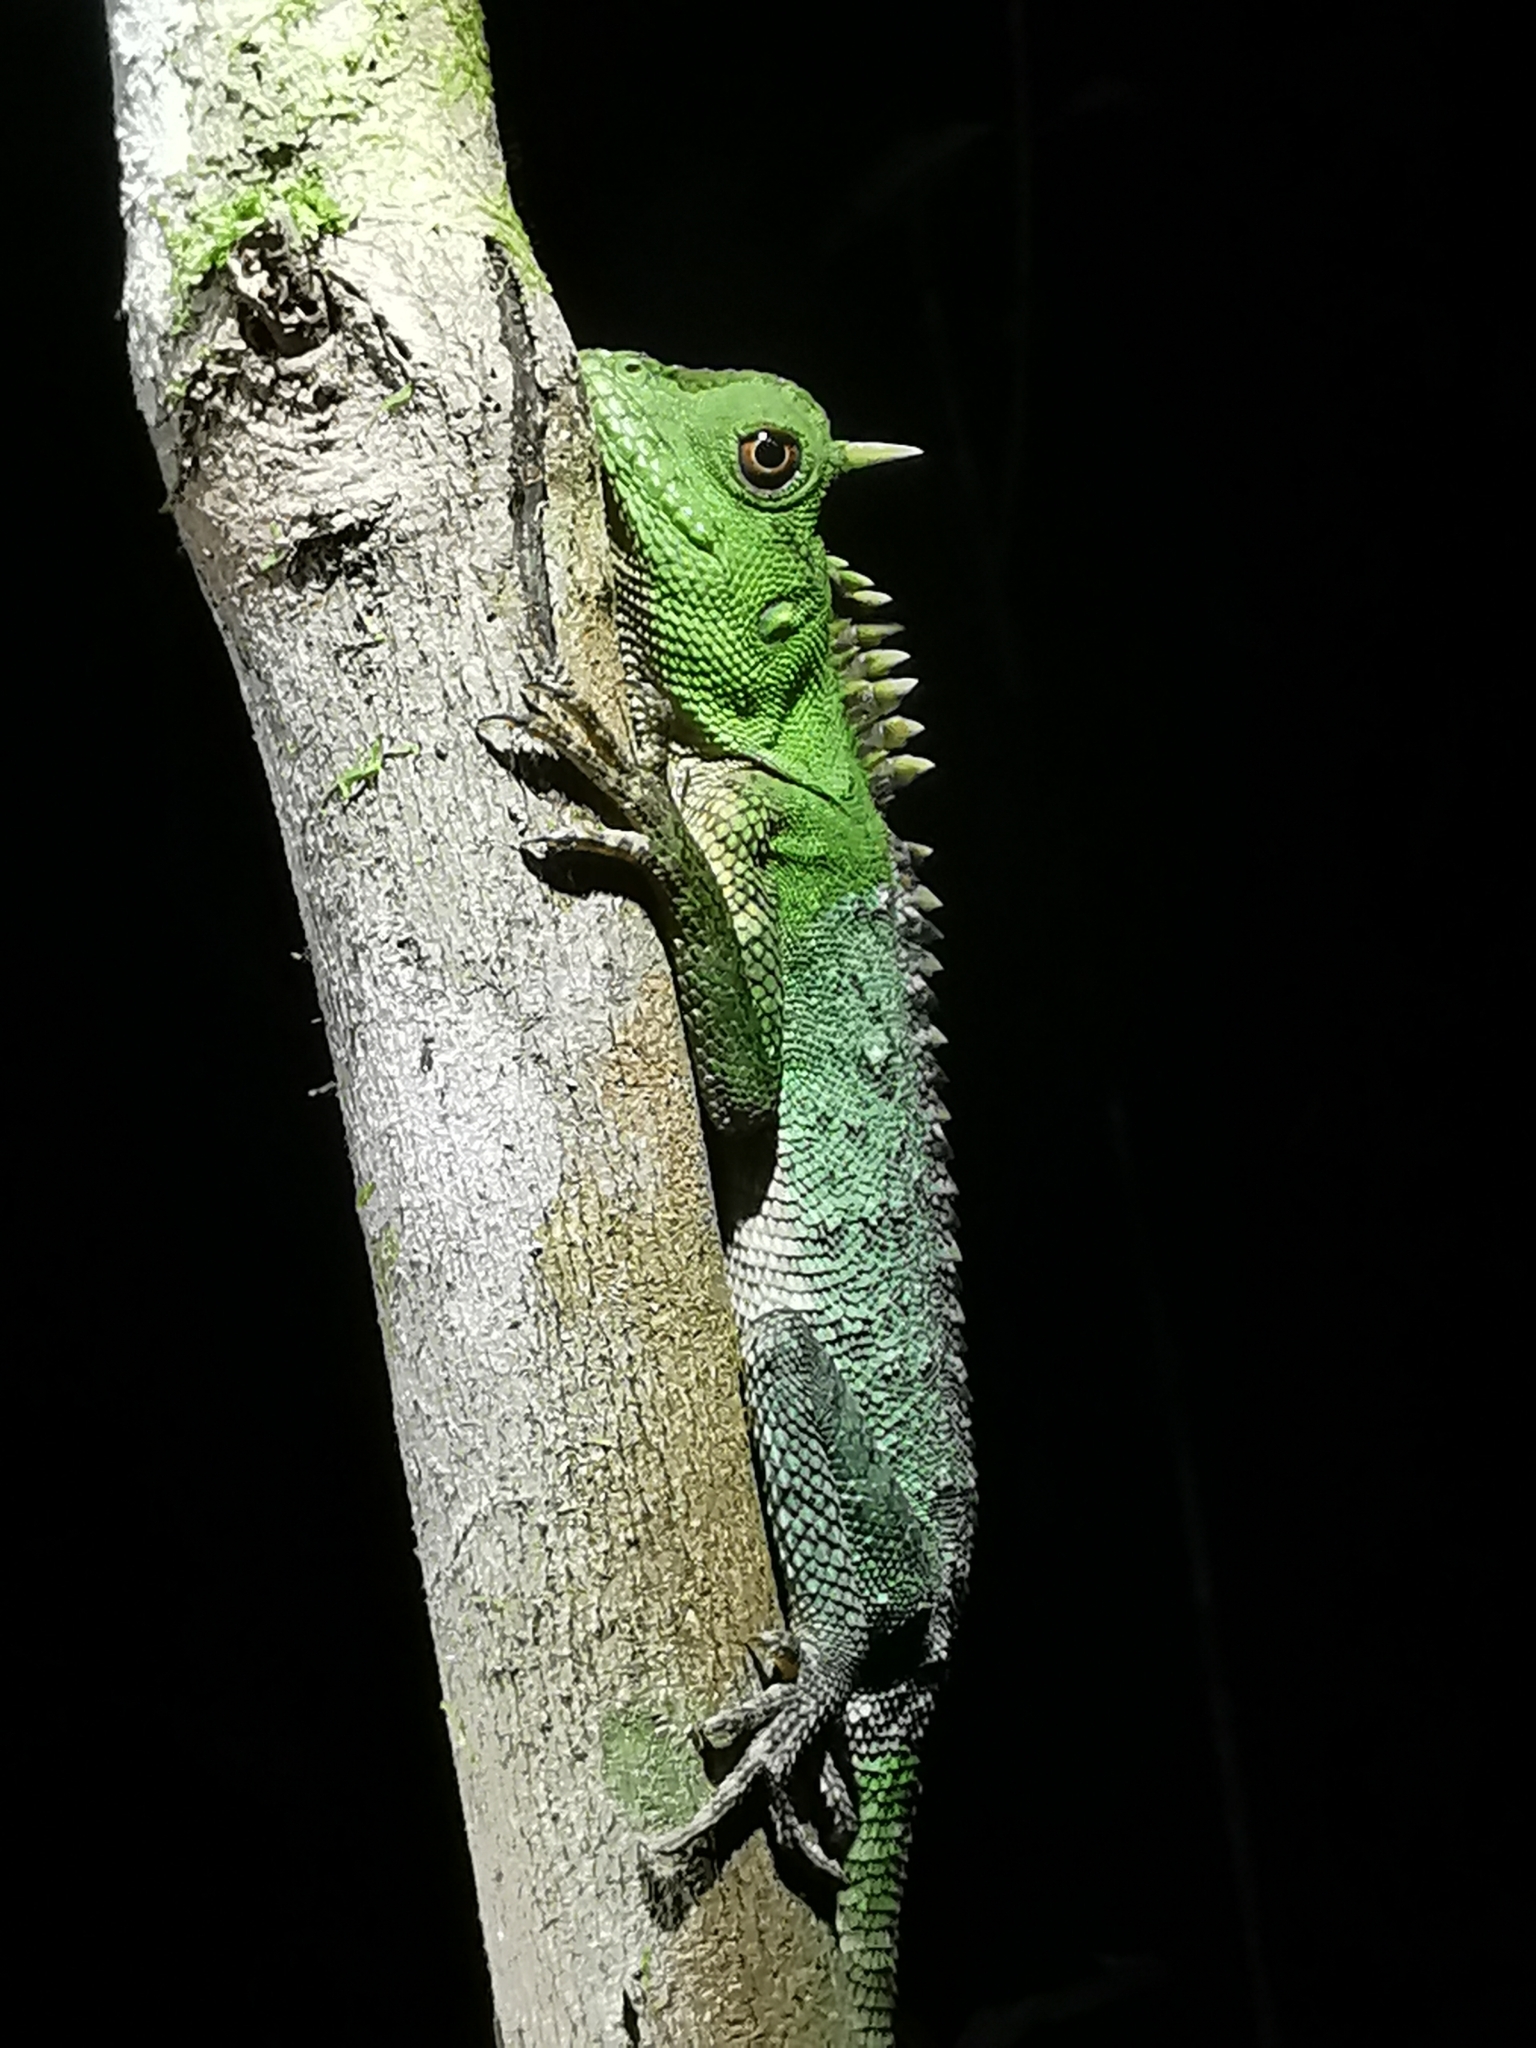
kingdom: Animalia
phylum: Chordata
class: Squamata
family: Agamidae
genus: Acanthosaura
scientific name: Acanthosaura capra
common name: Green pricklenape
